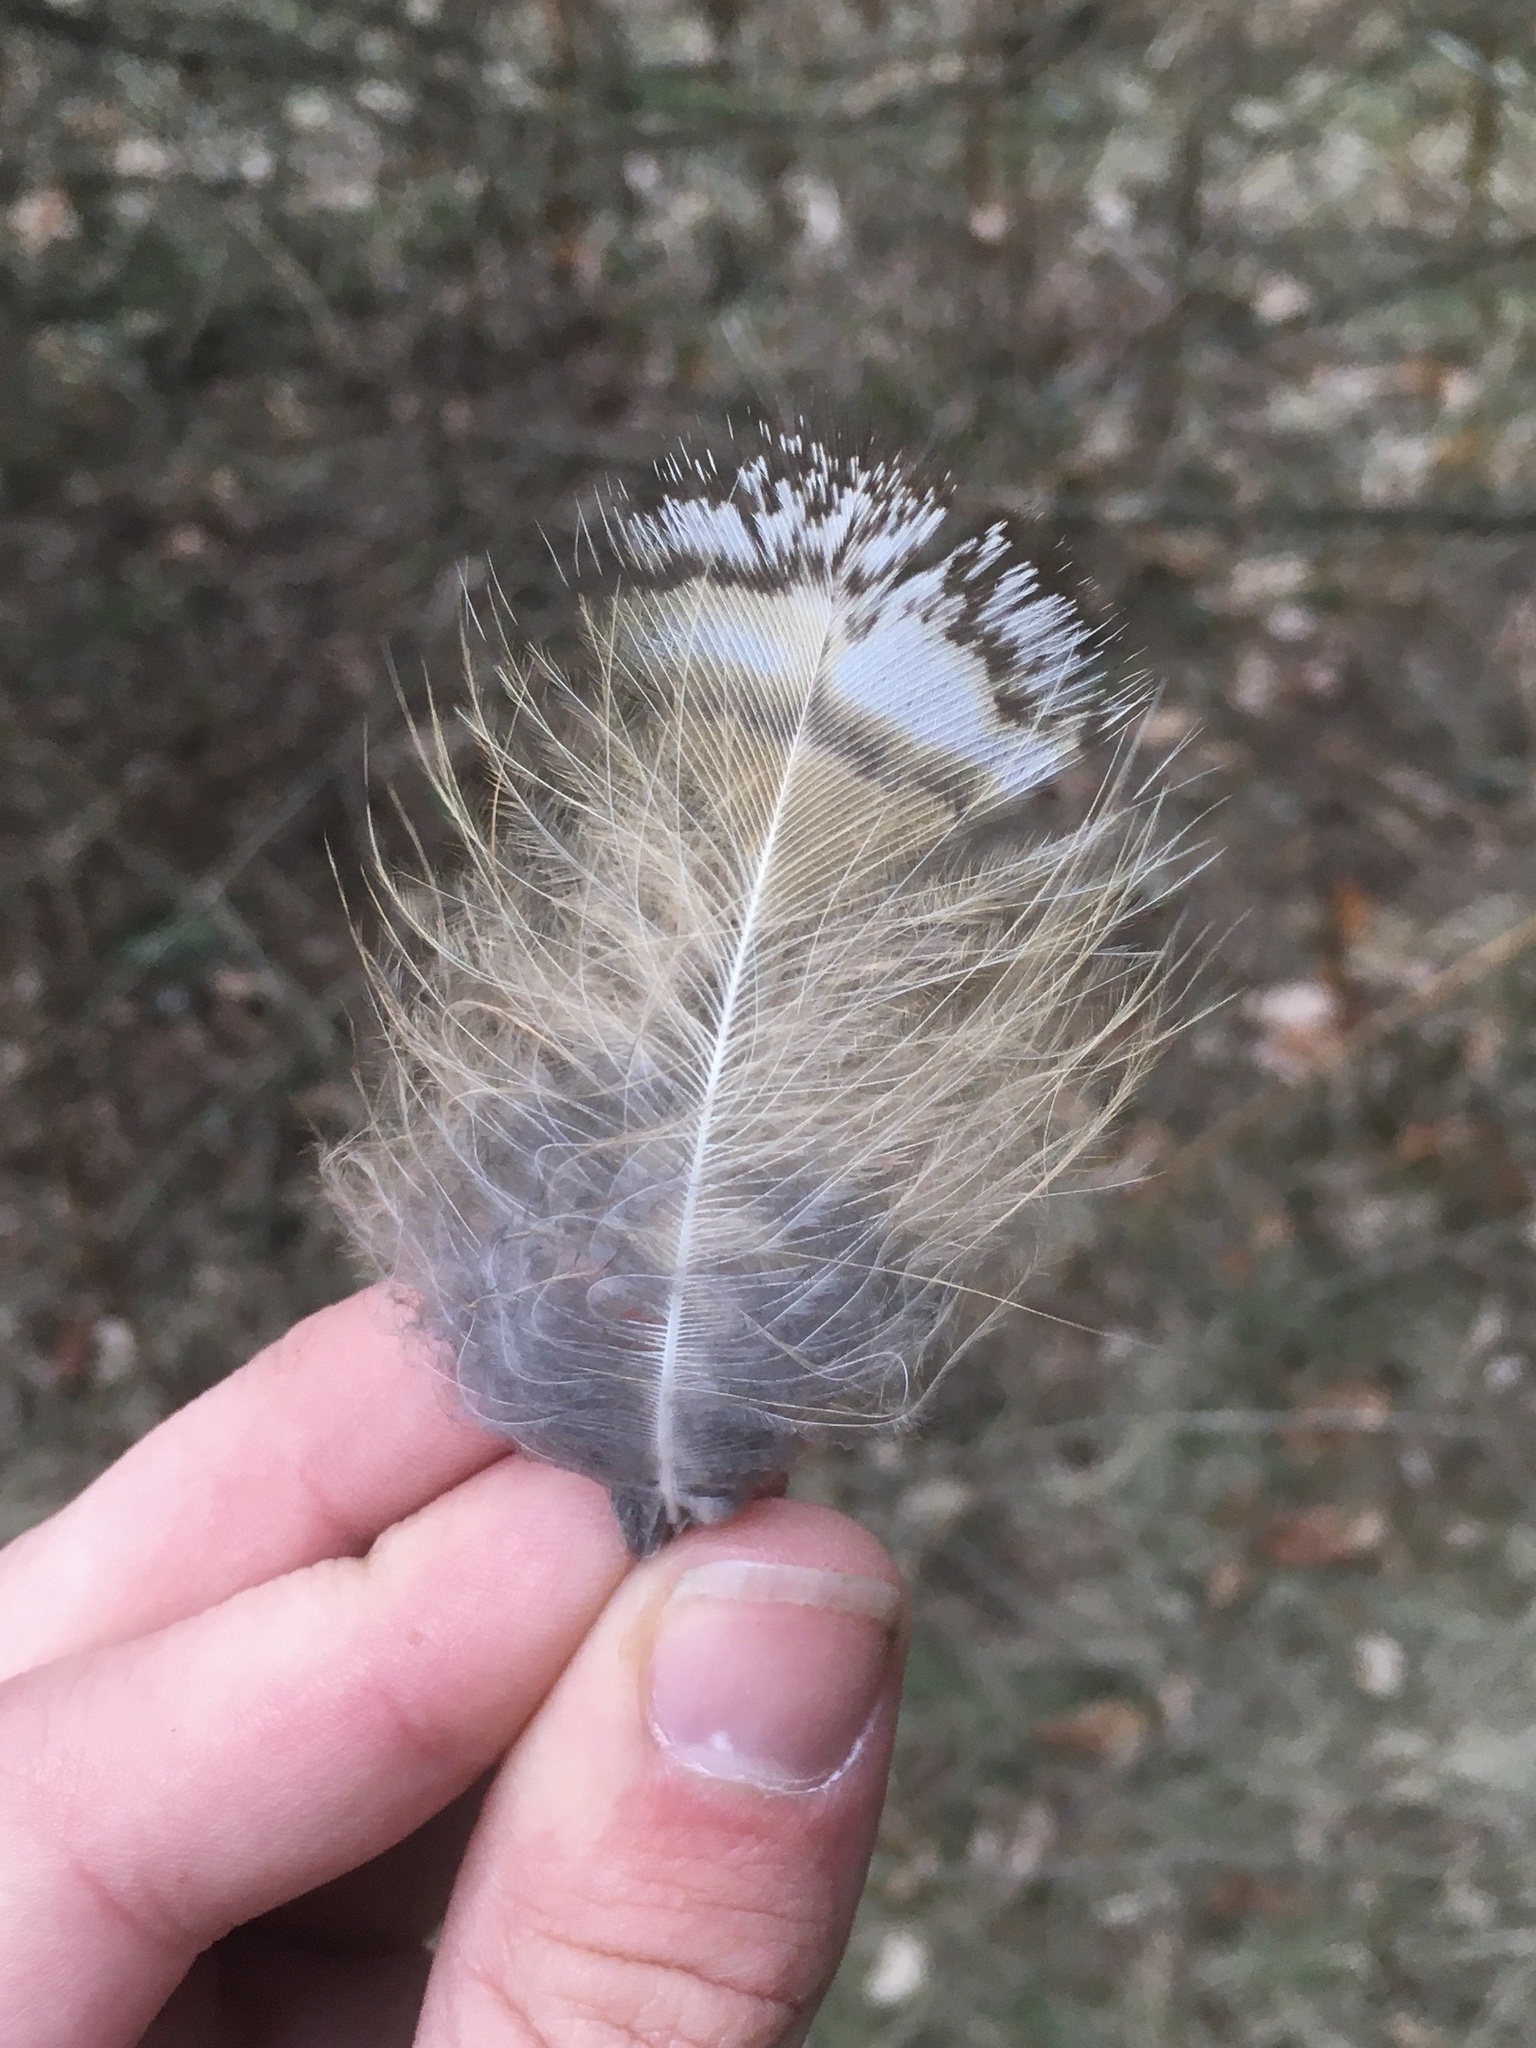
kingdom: Animalia
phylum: Chordata
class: Aves
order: Strigiformes
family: Strigidae
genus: Bubo
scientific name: Bubo virginianus
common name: Great horned owl
